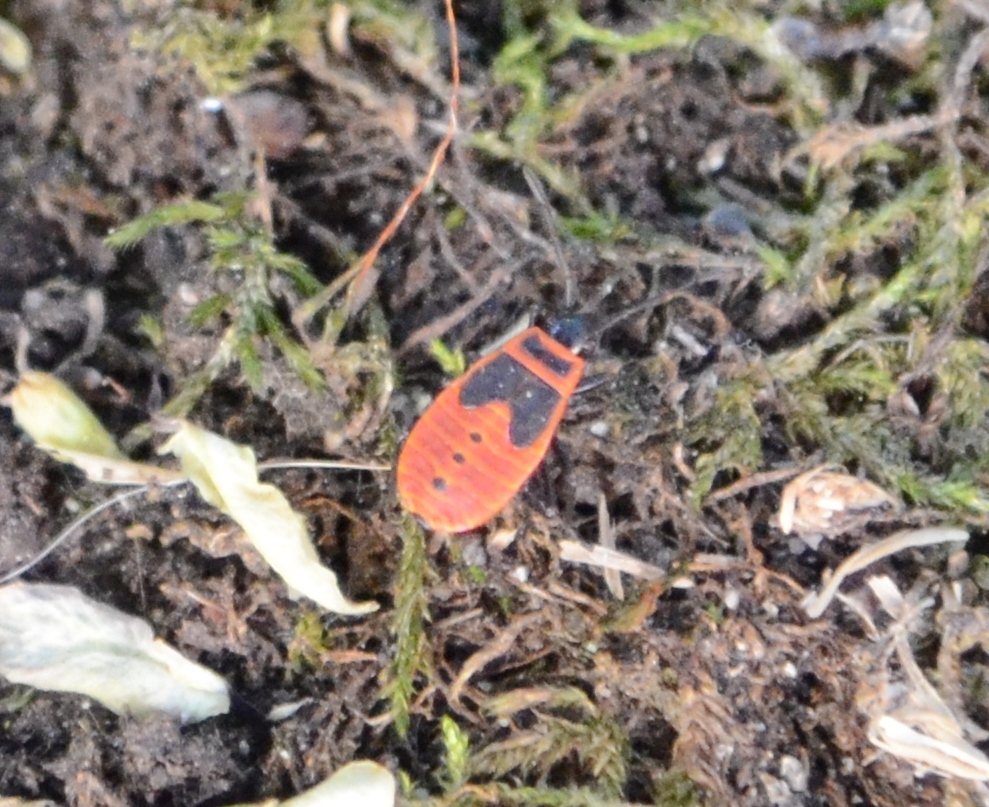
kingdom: Animalia
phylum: Arthropoda
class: Insecta
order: Hemiptera
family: Pyrrhocoridae
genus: Pyrrhocoris
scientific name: Pyrrhocoris apterus
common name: Firebug
